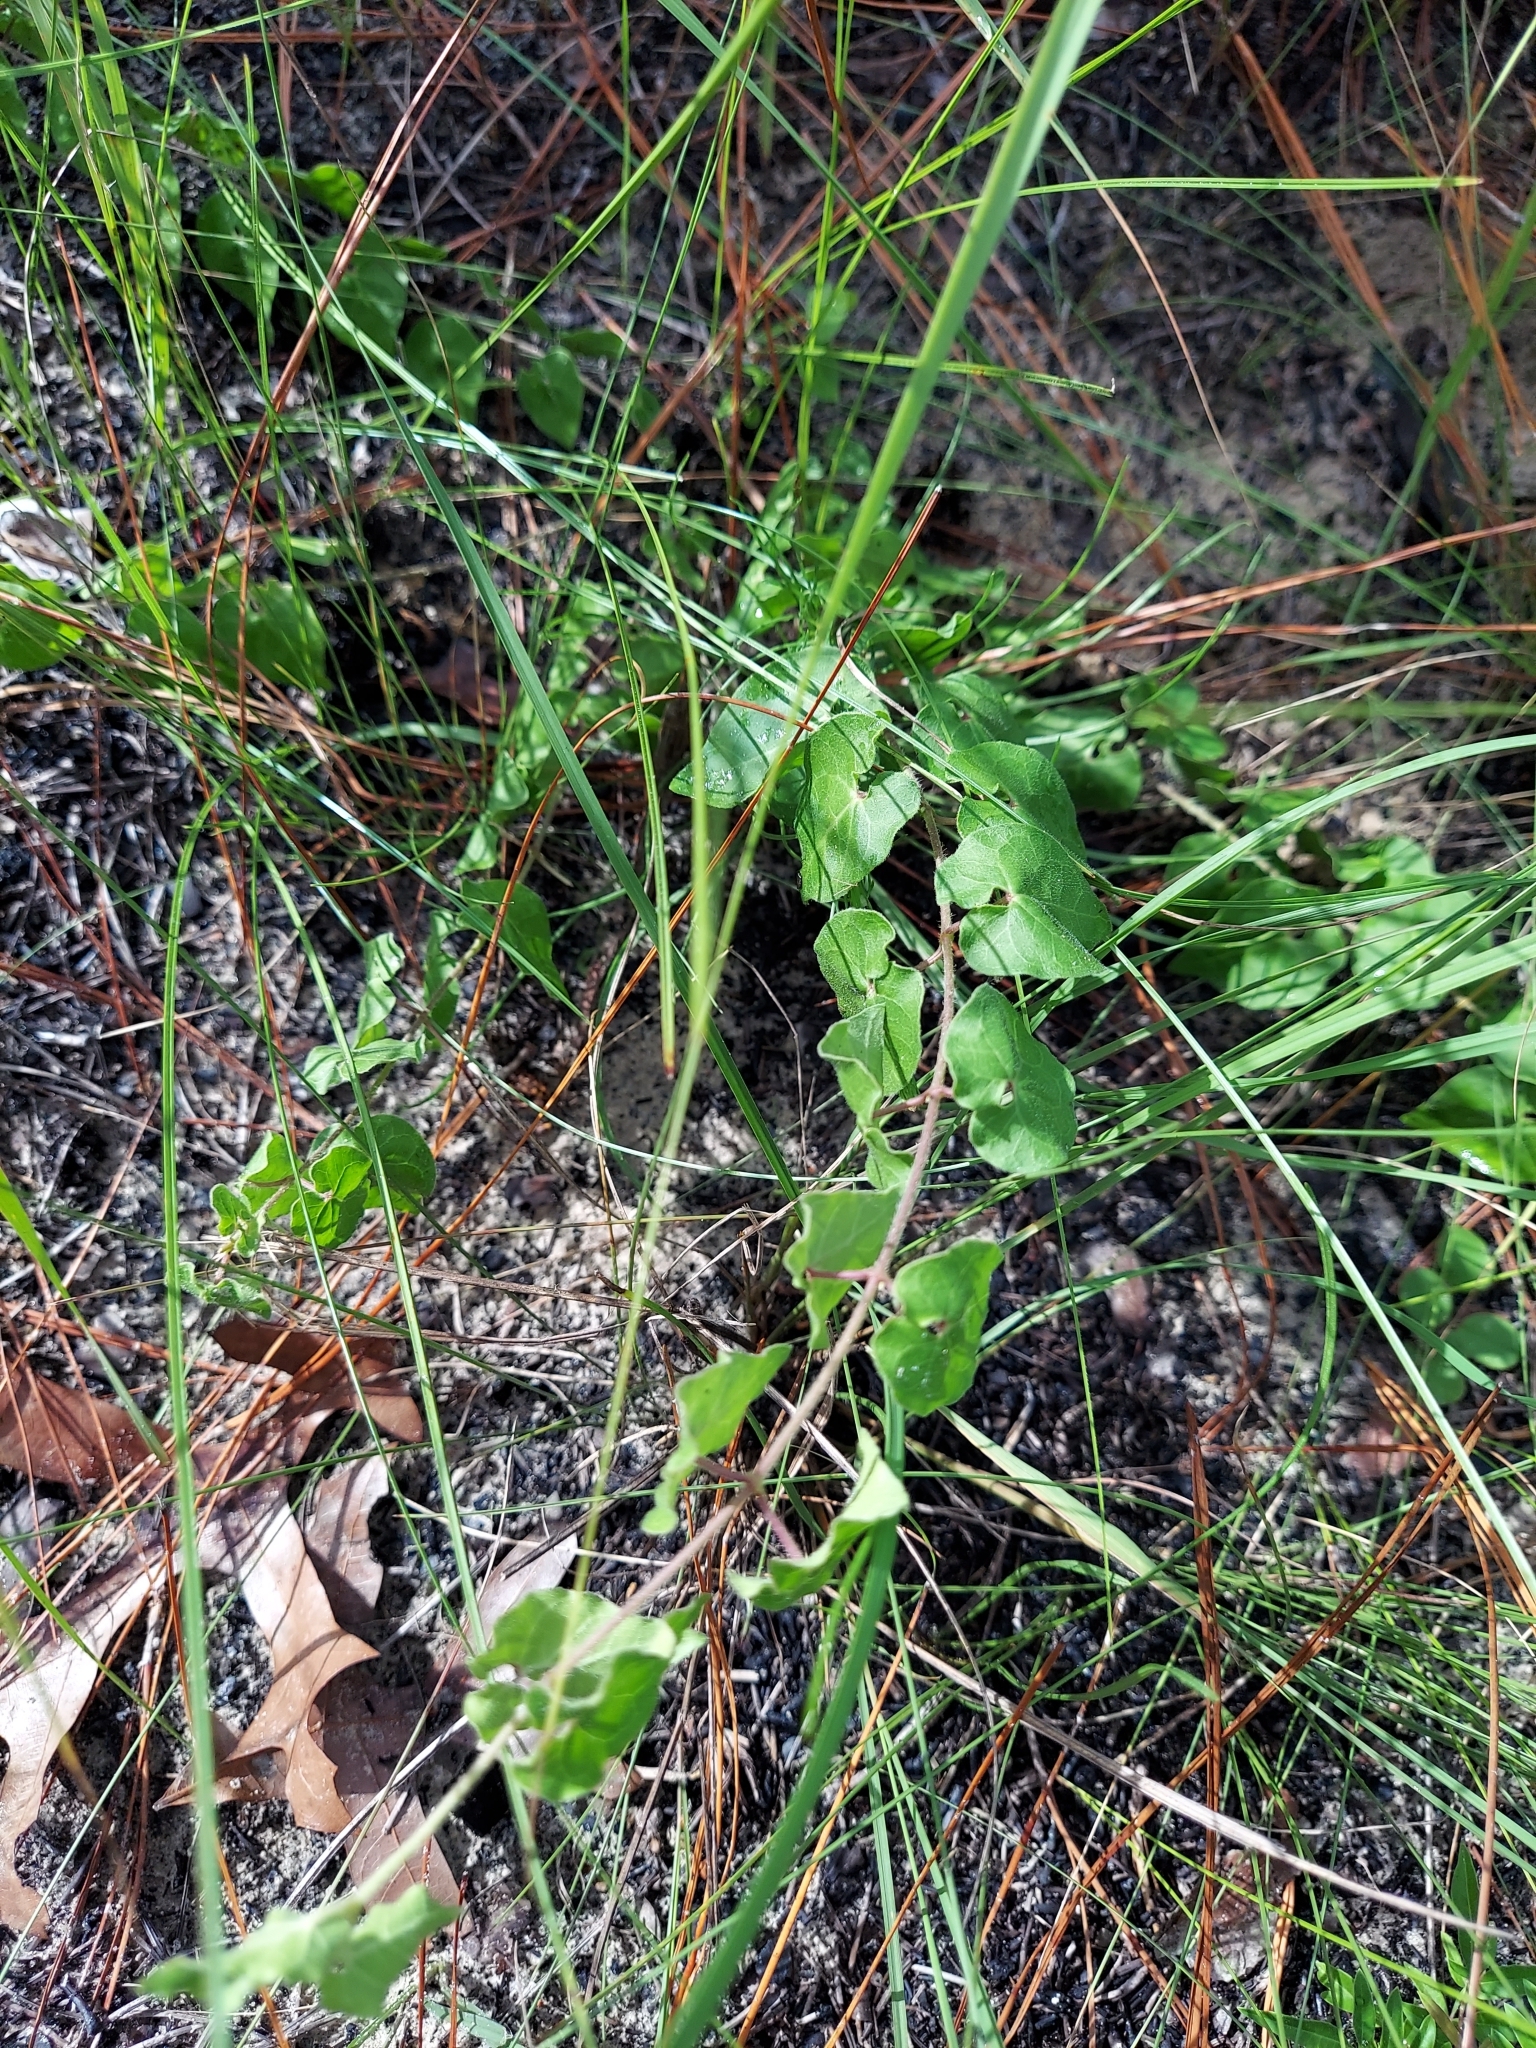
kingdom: Plantae
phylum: Tracheophyta
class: Magnoliopsida
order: Gentianales
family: Apocynaceae
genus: Chthamalia
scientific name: Chthamalia pubiflora
